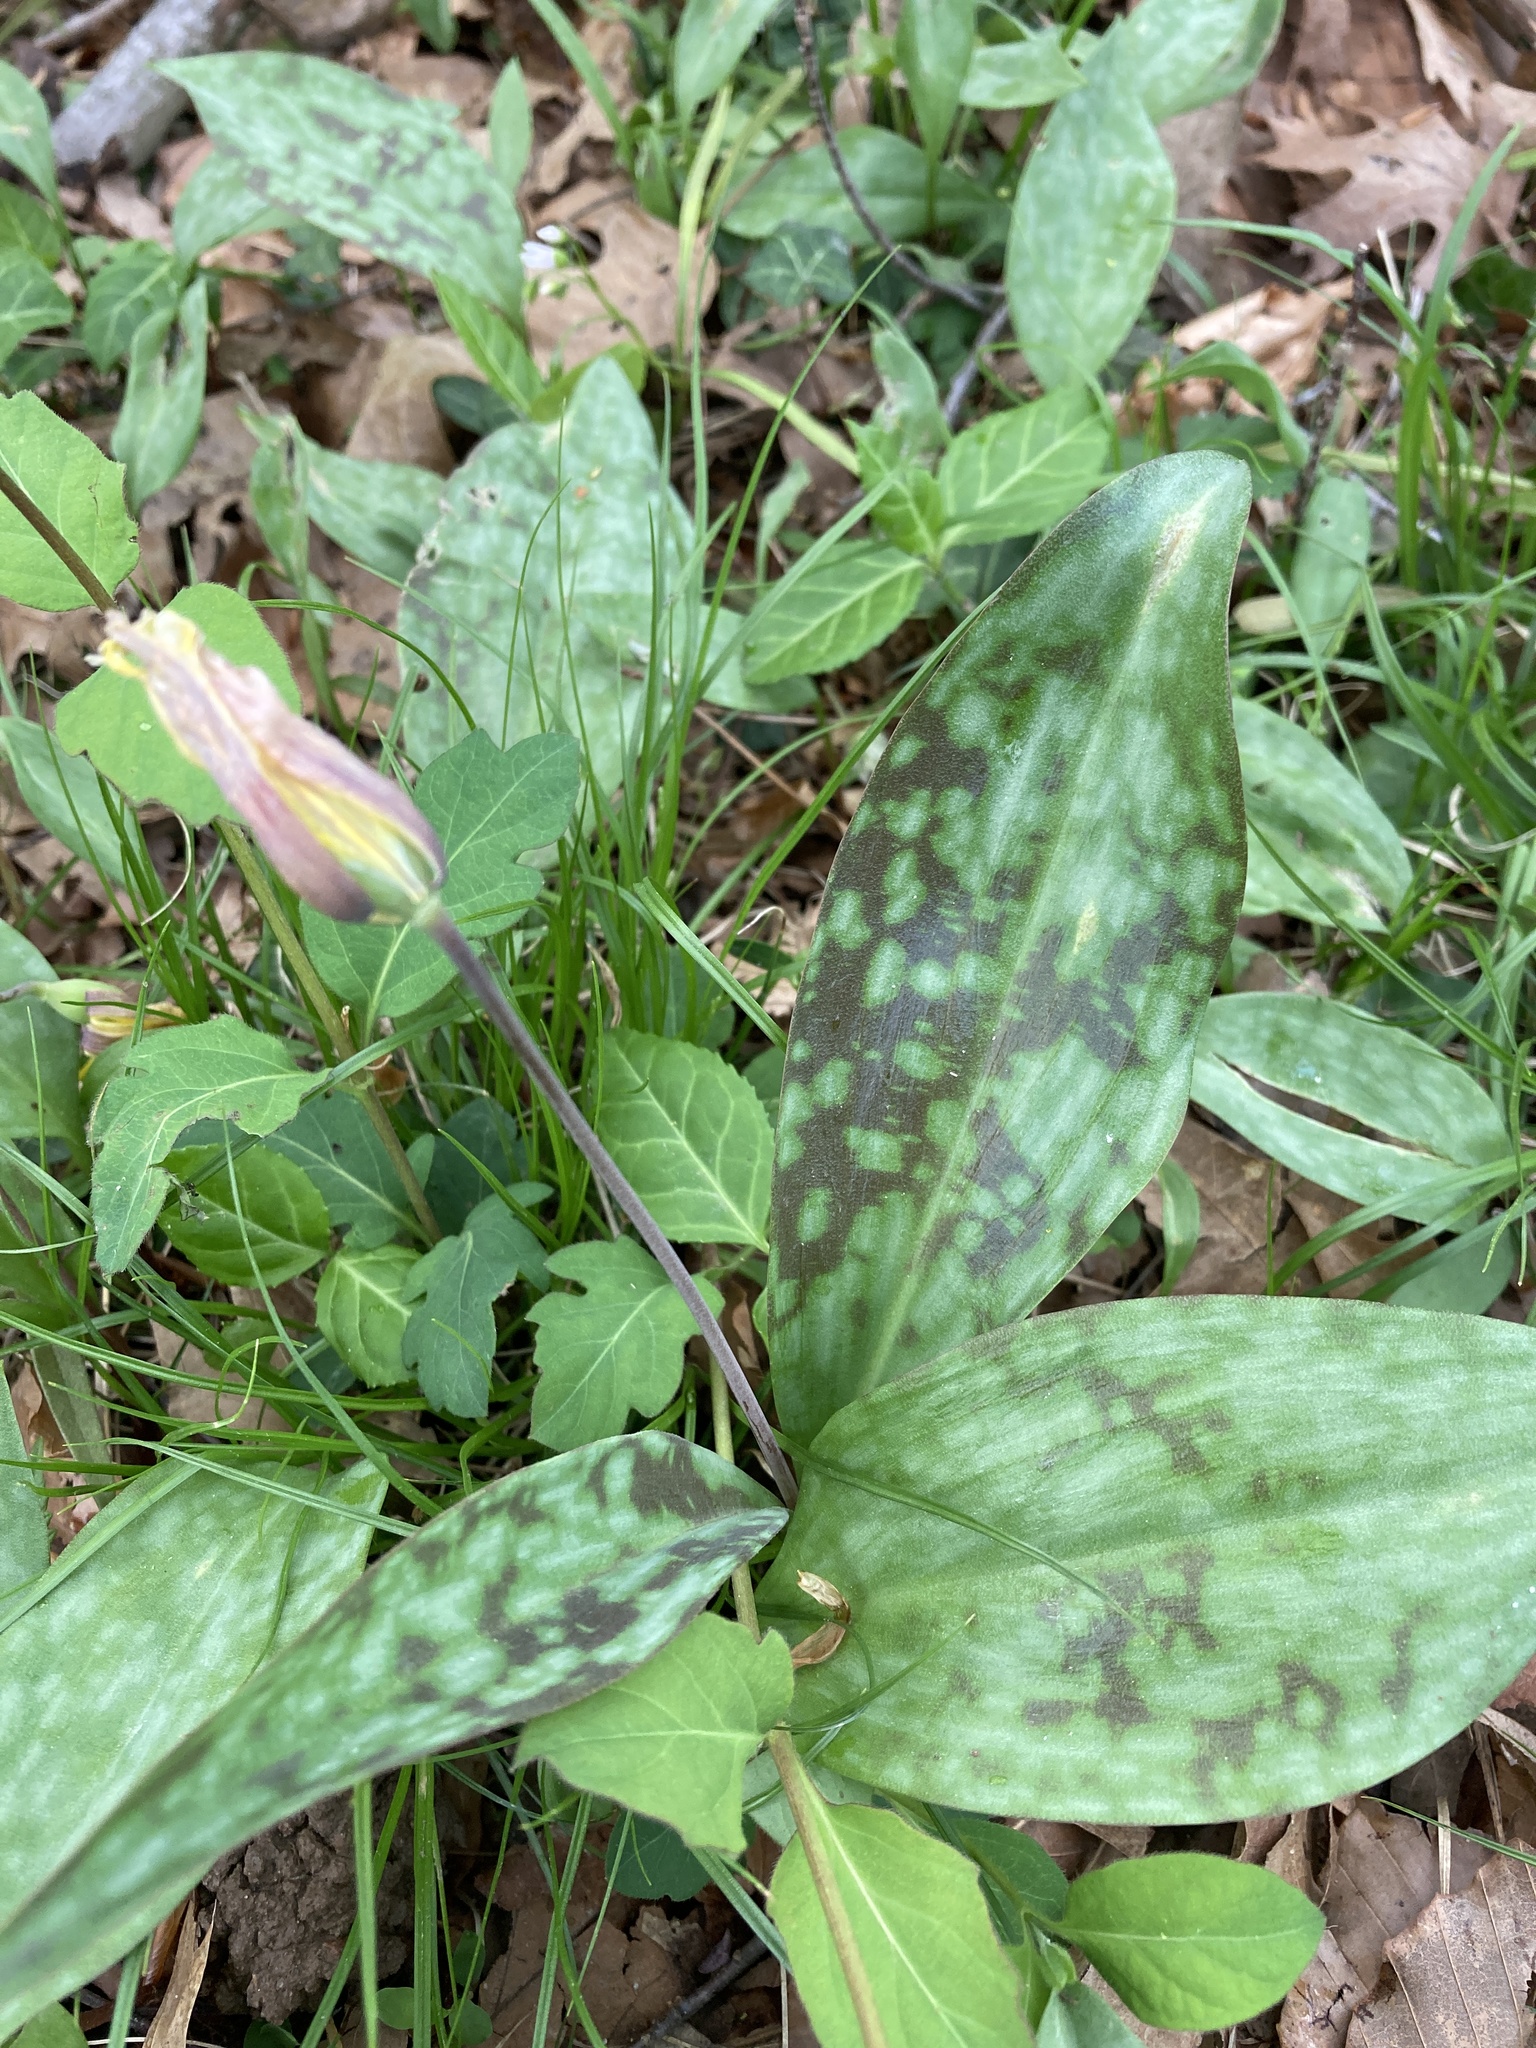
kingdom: Plantae
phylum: Tracheophyta
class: Liliopsida
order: Liliales
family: Liliaceae
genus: Erythronium
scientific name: Erythronium americanum
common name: Yellow adder's-tongue
